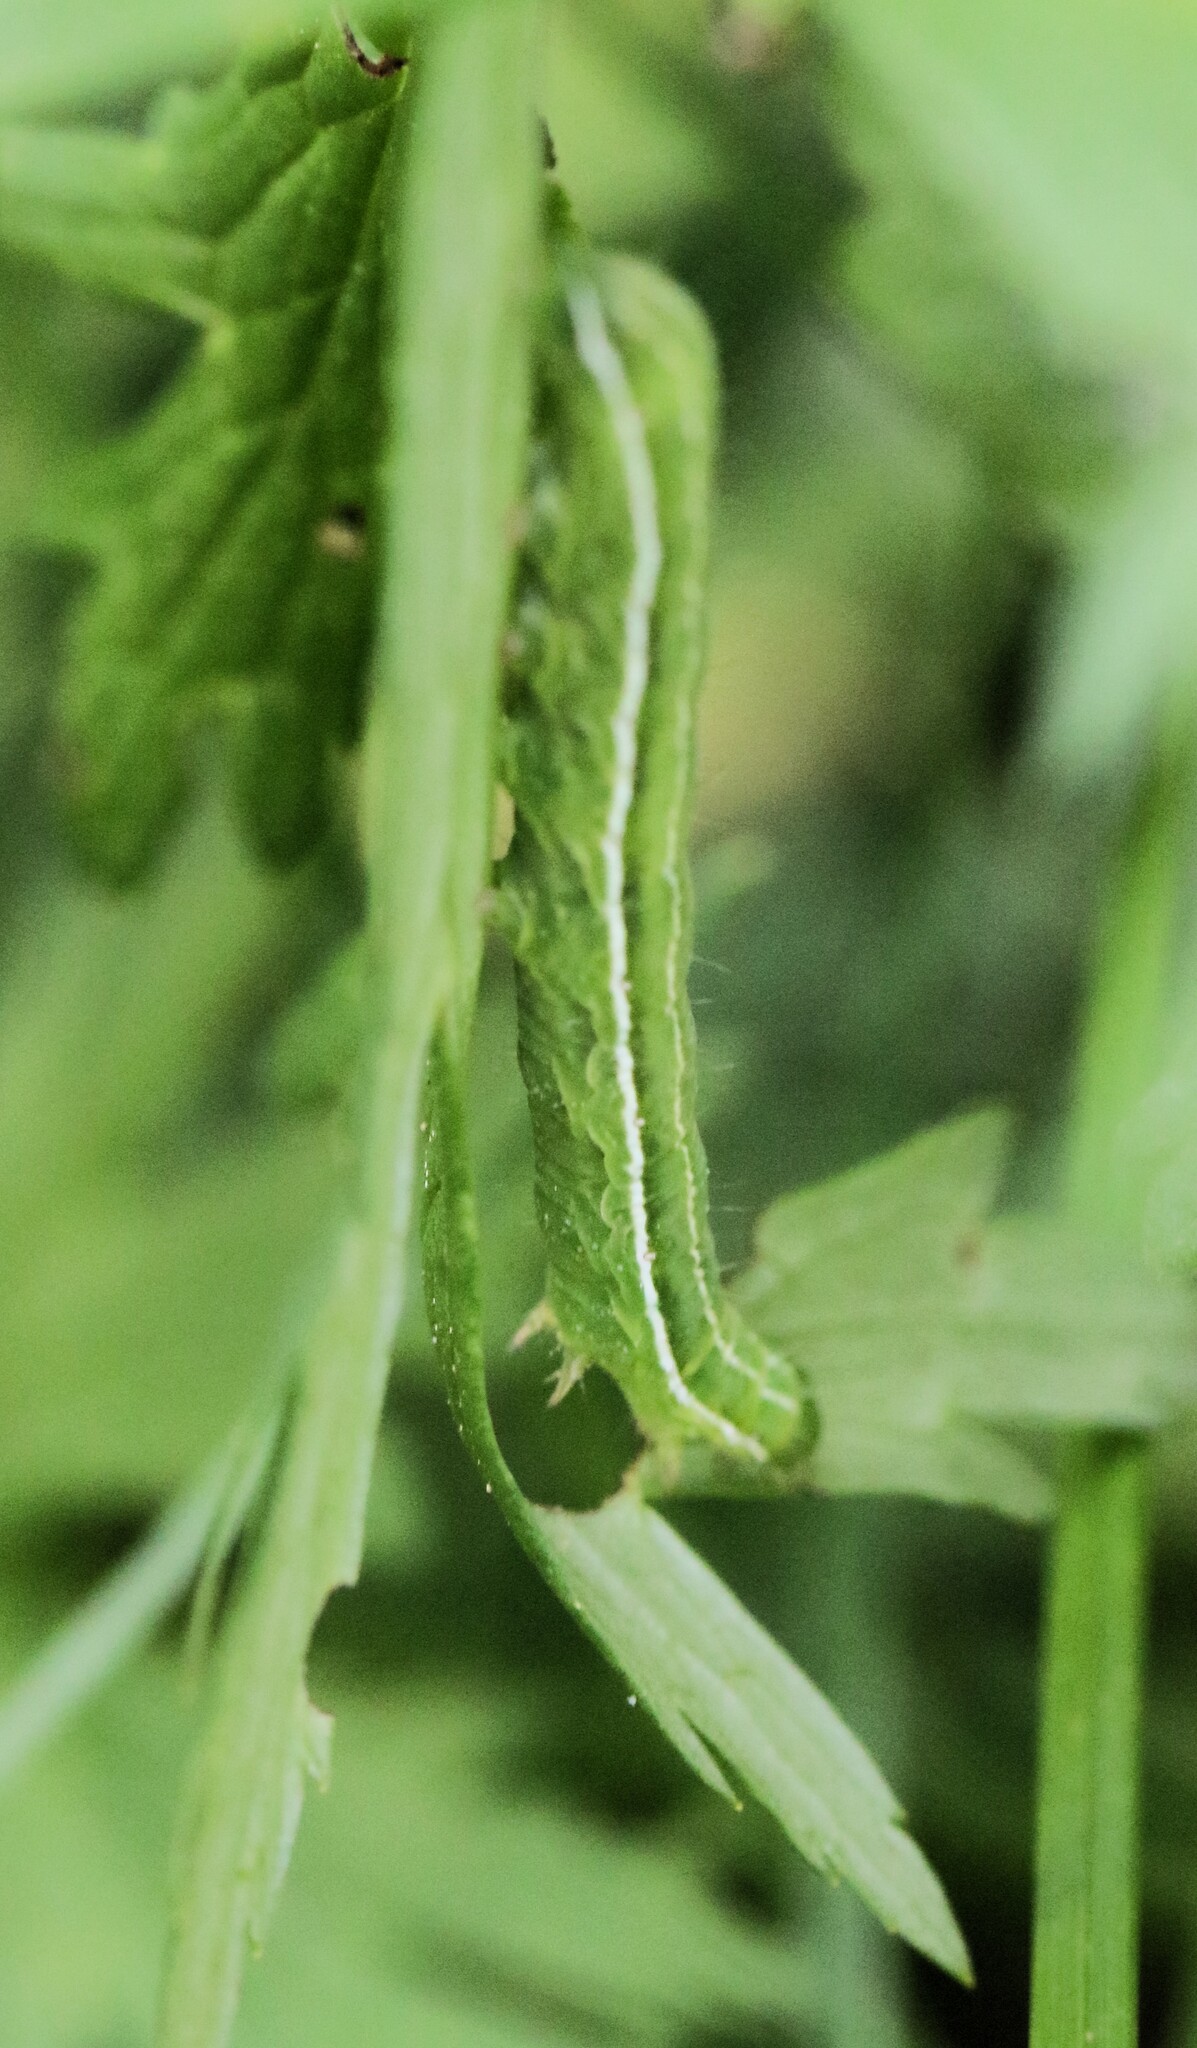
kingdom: Animalia
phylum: Arthropoda
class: Insecta
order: Lepidoptera
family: Nymphalidae
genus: Coenonympha
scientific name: Coenonympha california
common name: Common ringlet
